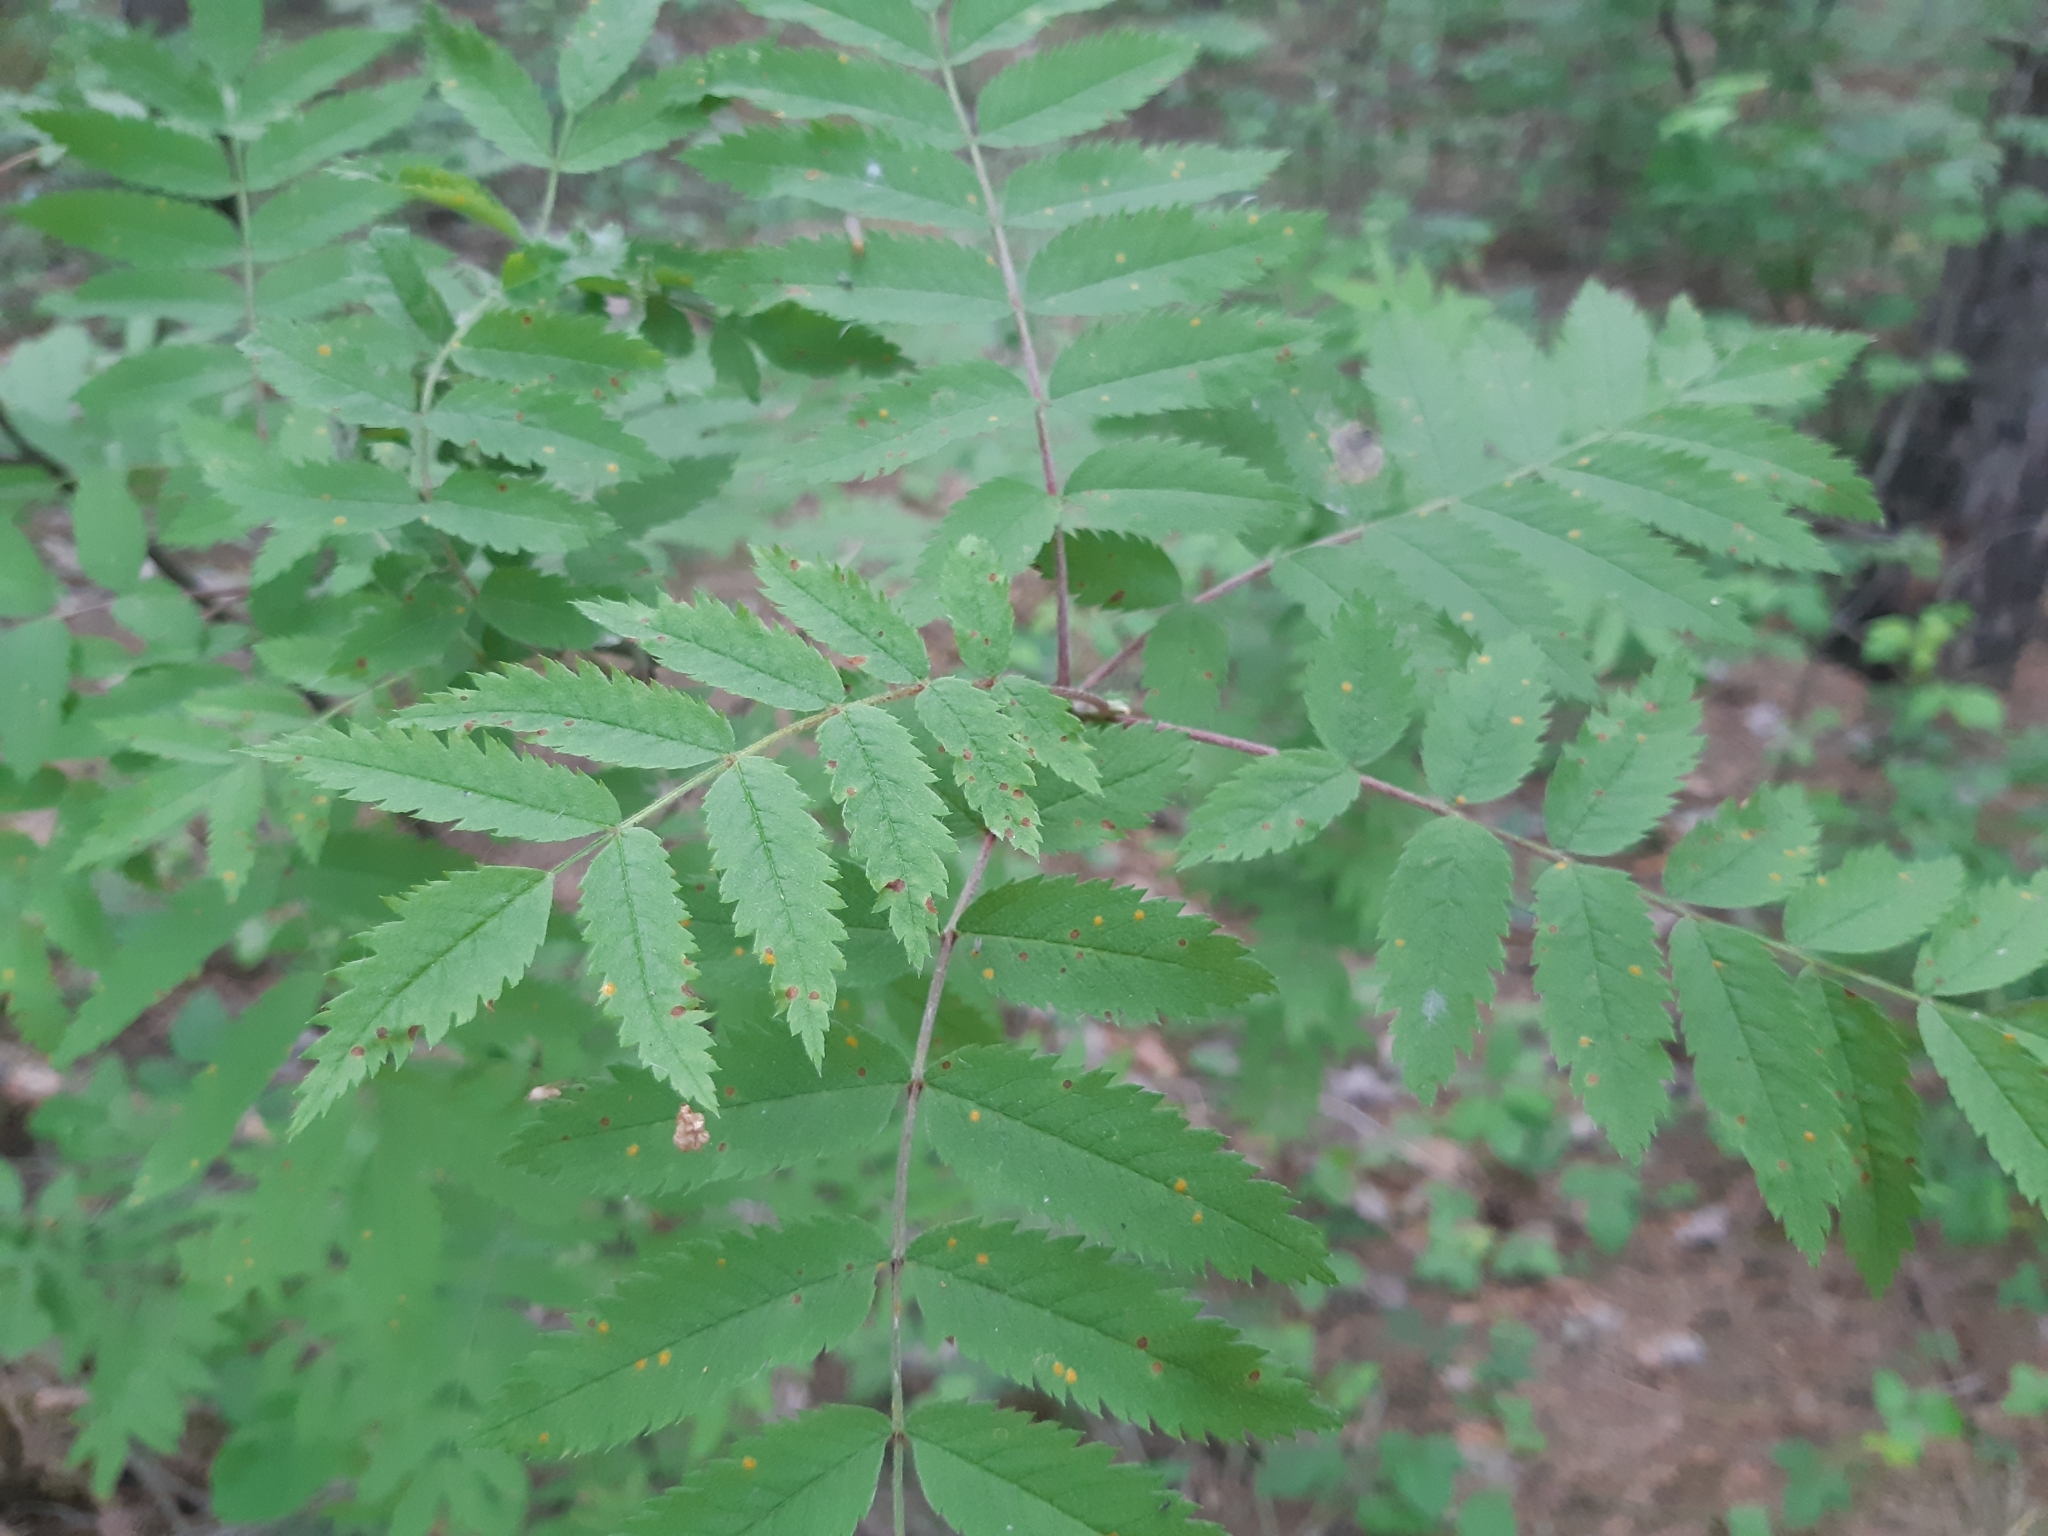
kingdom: Plantae
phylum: Tracheophyta
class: Magnoliopsida
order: Rosales
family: Rosaceae
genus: Sorbus
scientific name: Sorbus aucuparia
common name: Rowan
